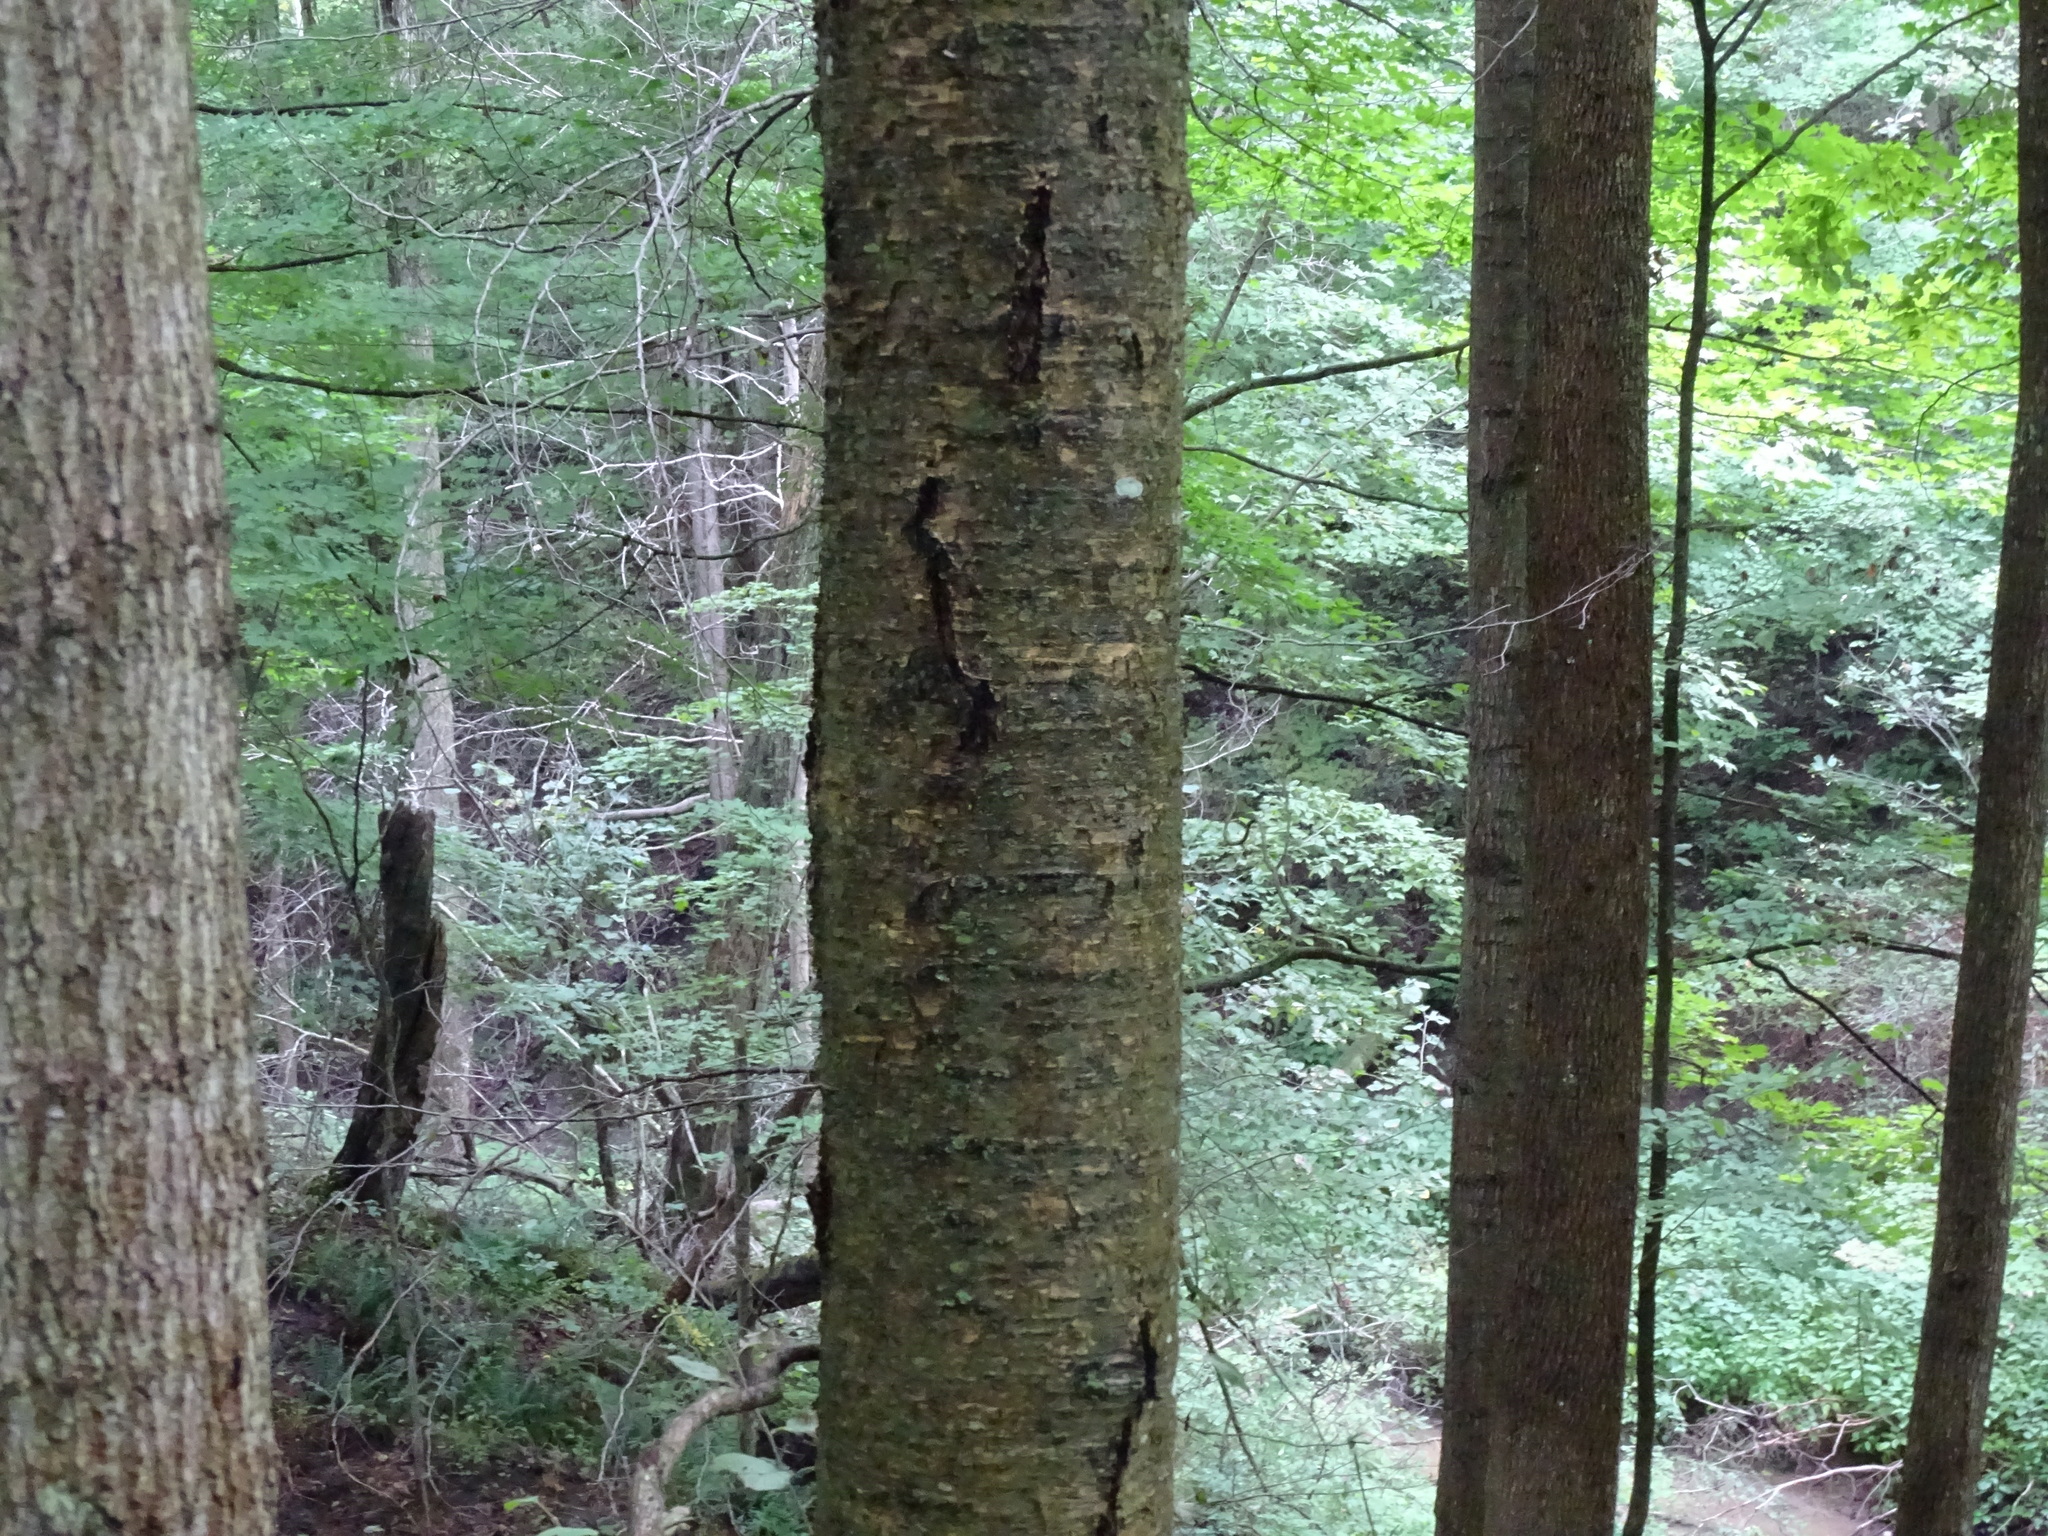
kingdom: Plantae
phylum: Tracheophyta
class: Magnoliopsida
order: Fagales
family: Betulaceae
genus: Betula
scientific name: Betula alleghaniensis
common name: Yellow birch
